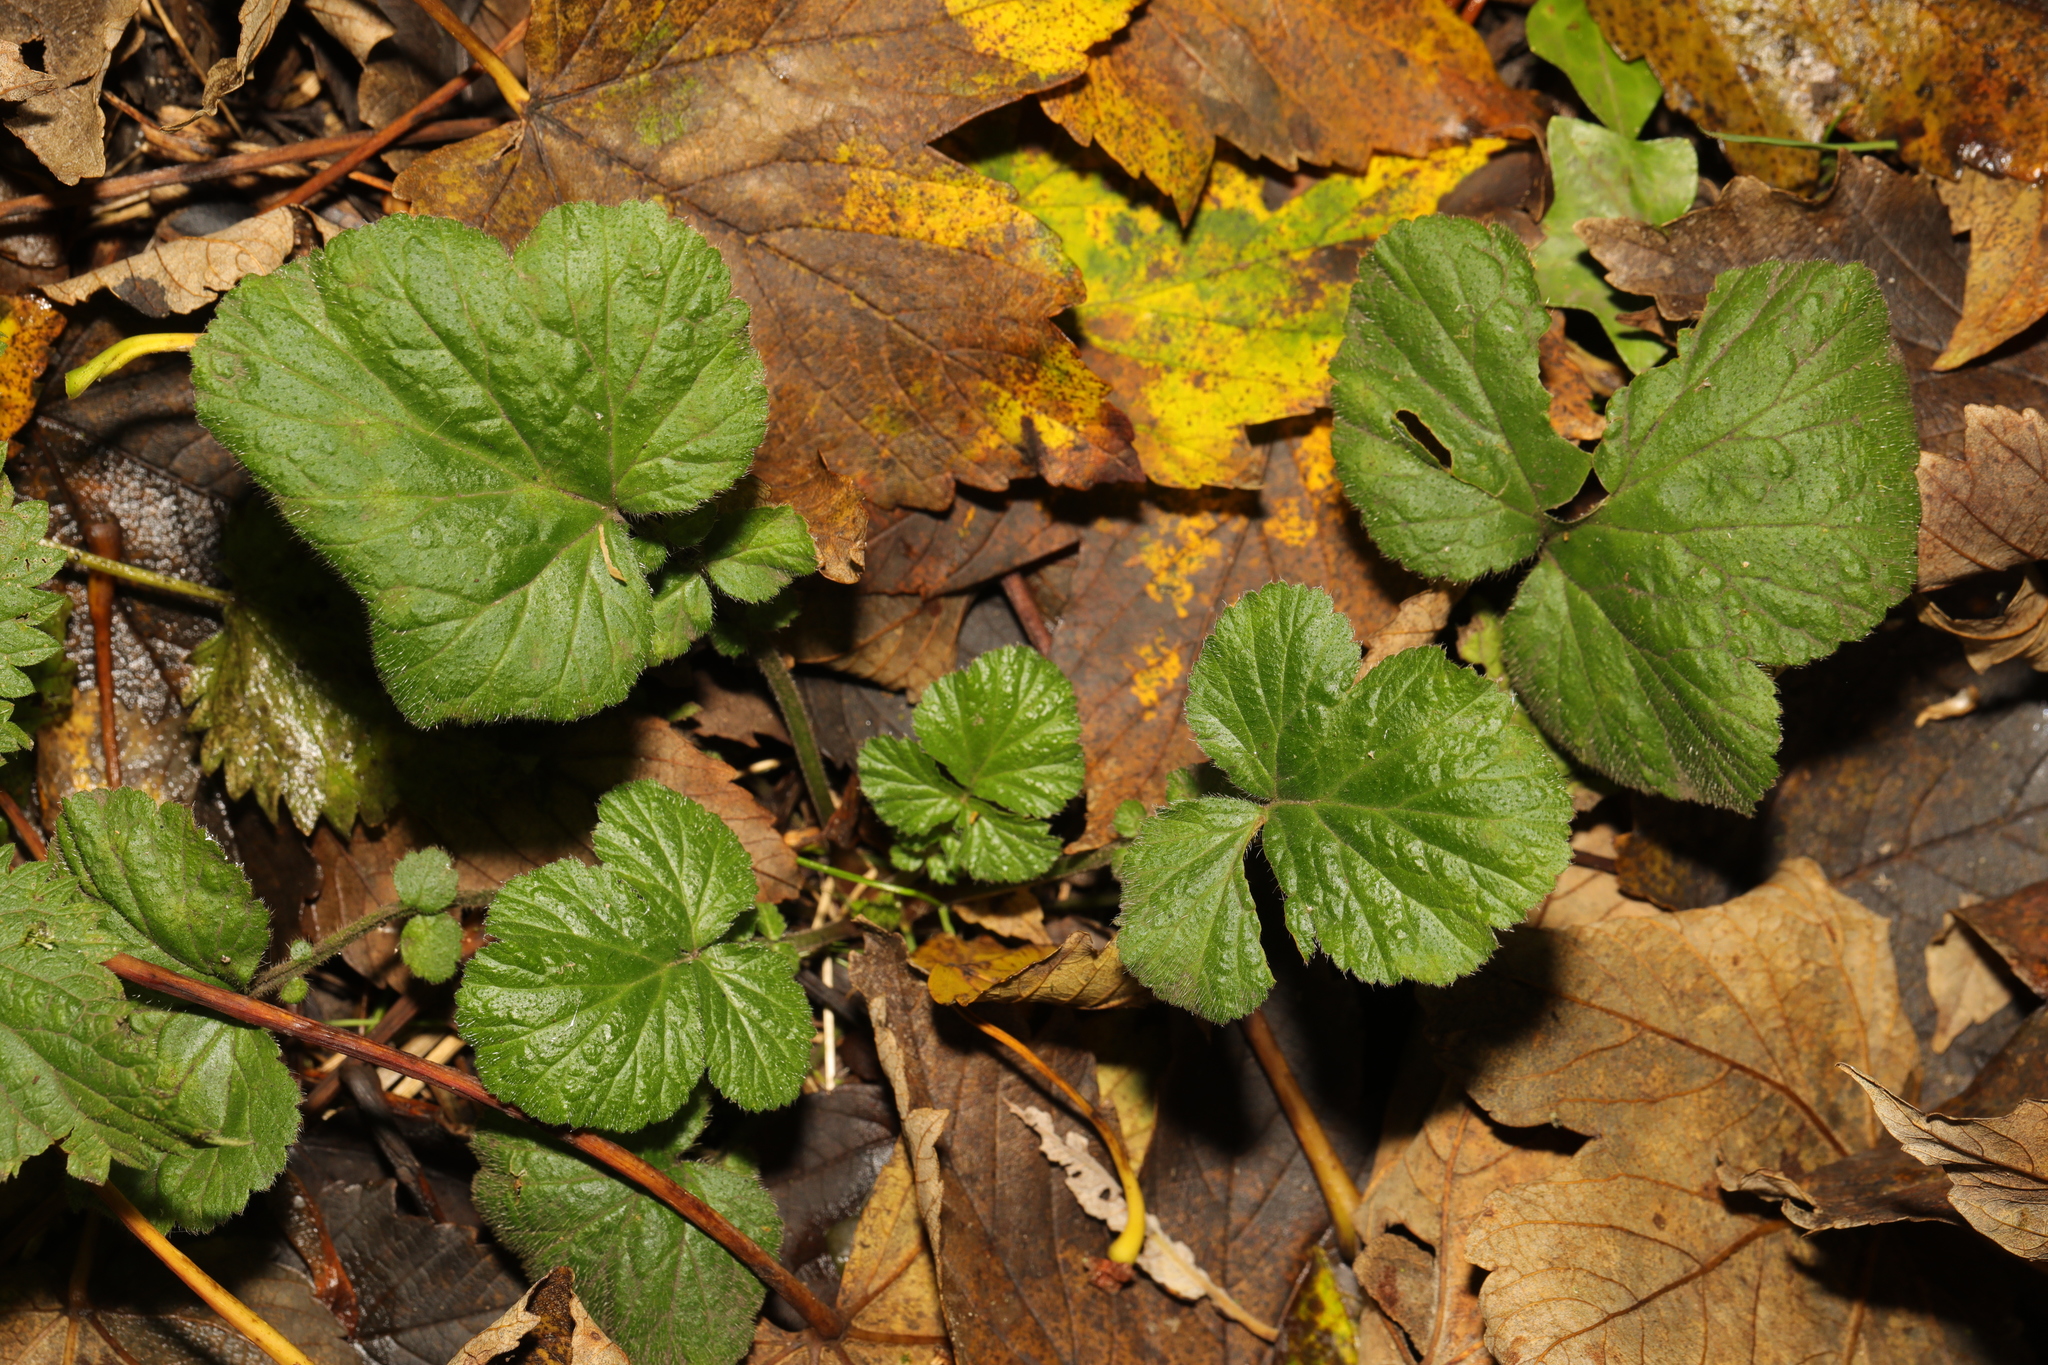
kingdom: Plantae
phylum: Tracheophyta
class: Magnoliopsida
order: Rosales
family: Rosaceae
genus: Geum
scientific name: Geum urbanum
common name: Wood avens
